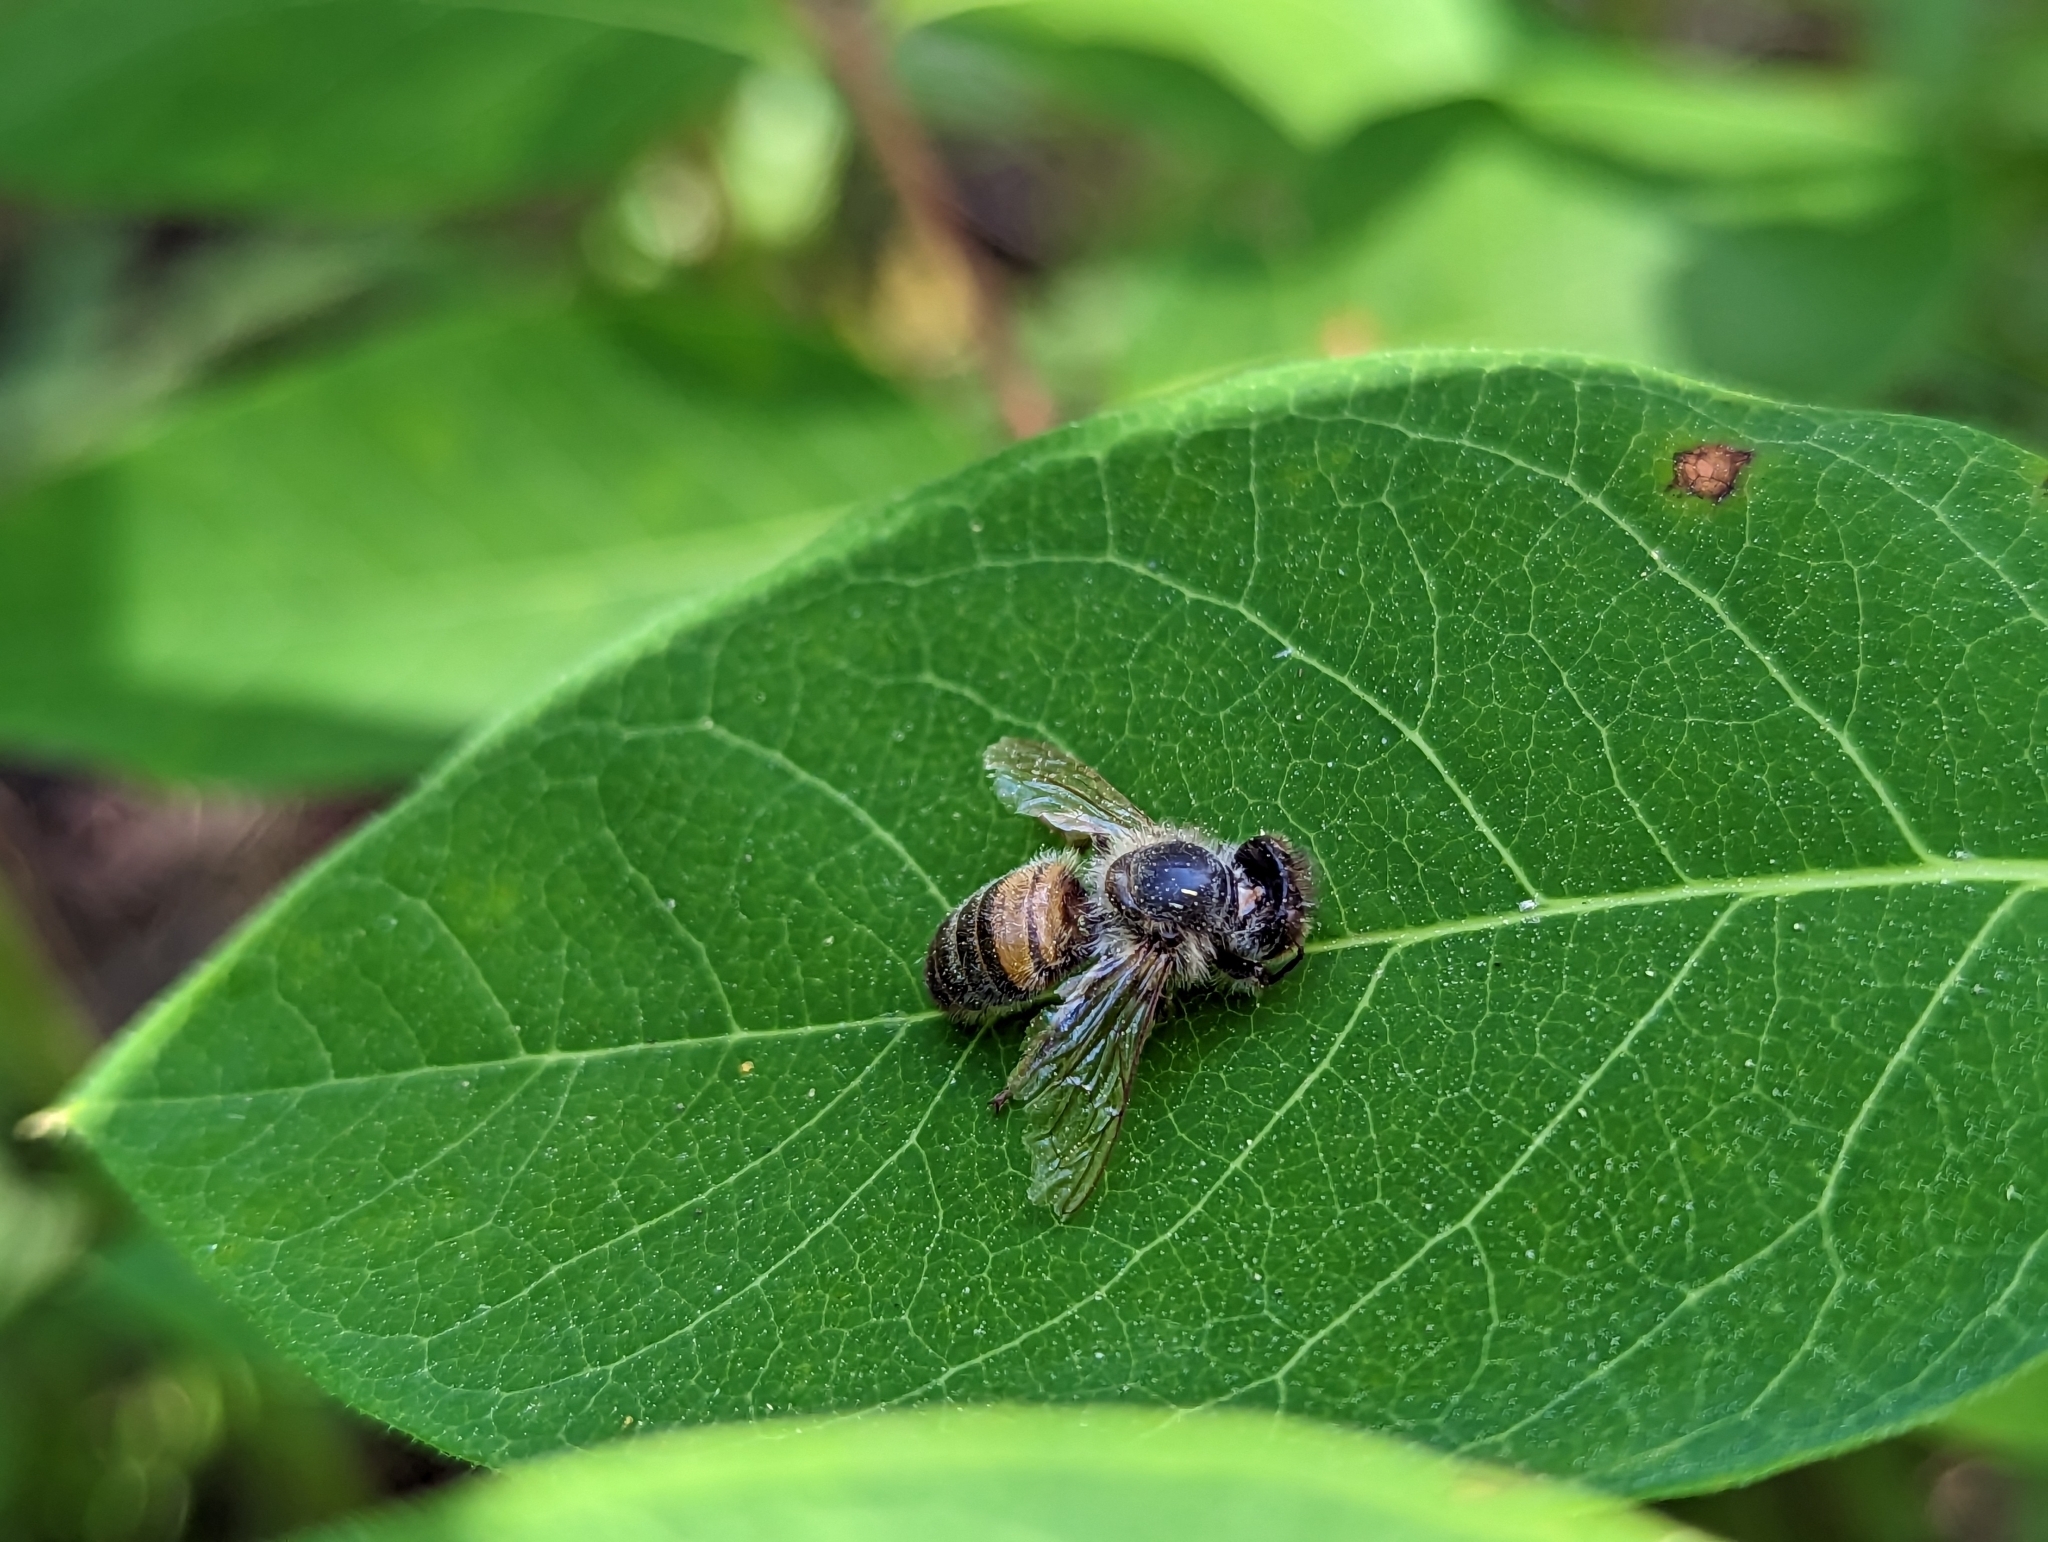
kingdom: Animalia
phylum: Arthropoda
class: Insecta
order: Hymenoptera
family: Apidae
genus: Apis
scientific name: Apis mellifera
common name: Honey bee
